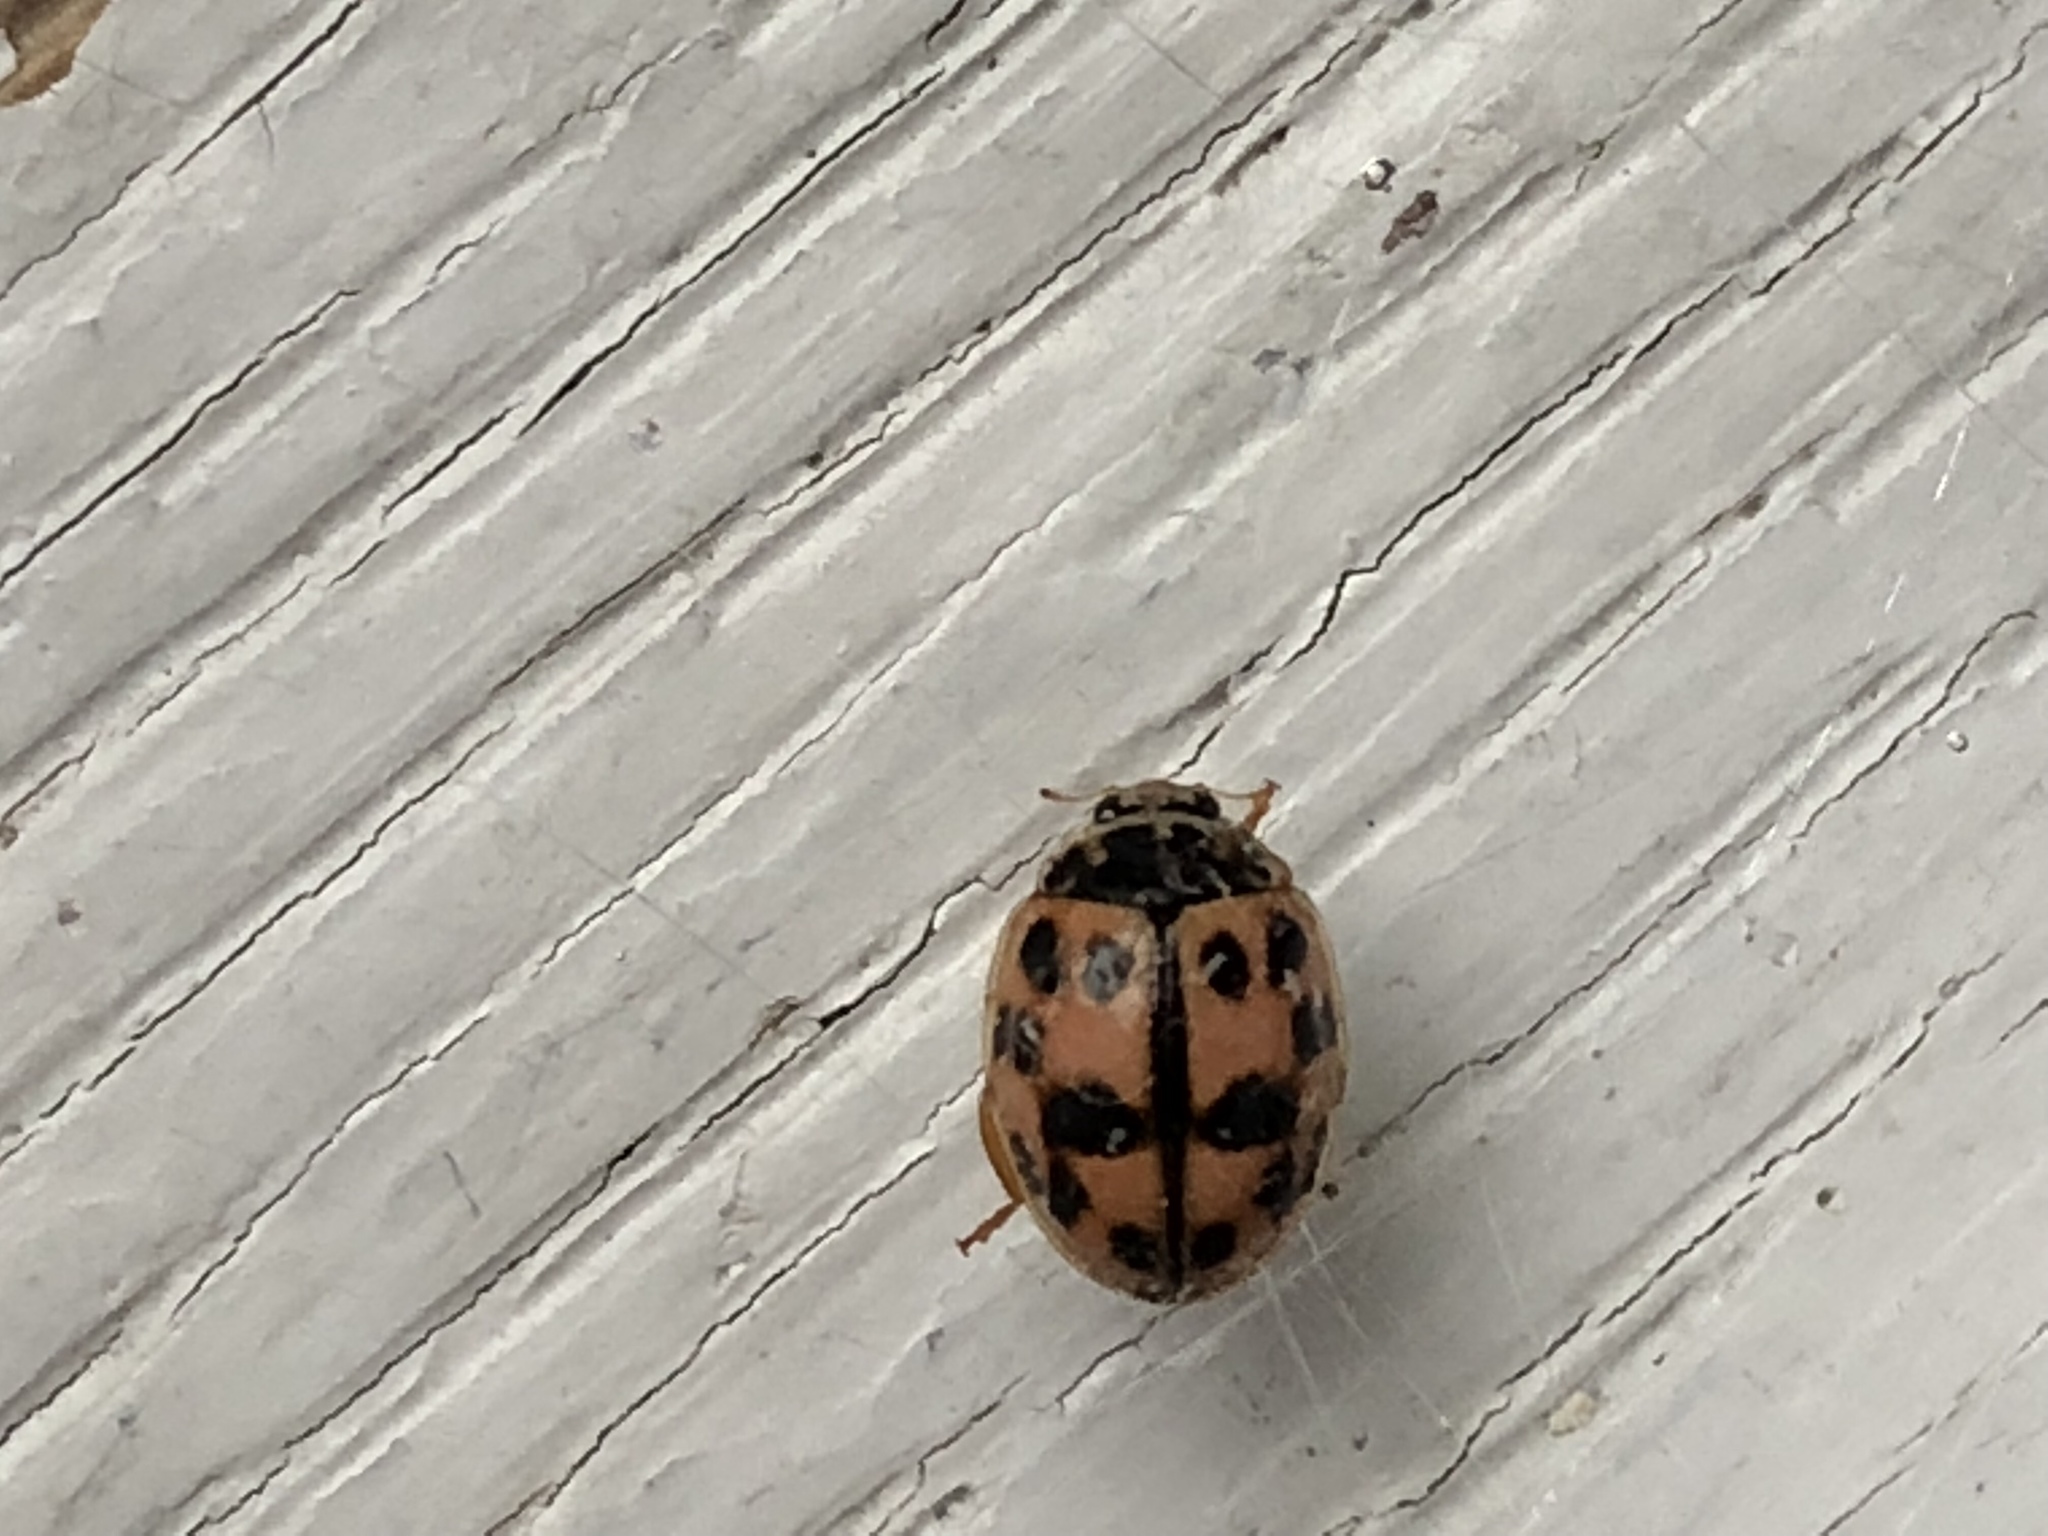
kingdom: Animalia
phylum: Arthropoda
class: Insecta
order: Coleoptera
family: Coccinellidae
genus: Oenopia
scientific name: Oenopia conglobata
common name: Ladybird beetle
